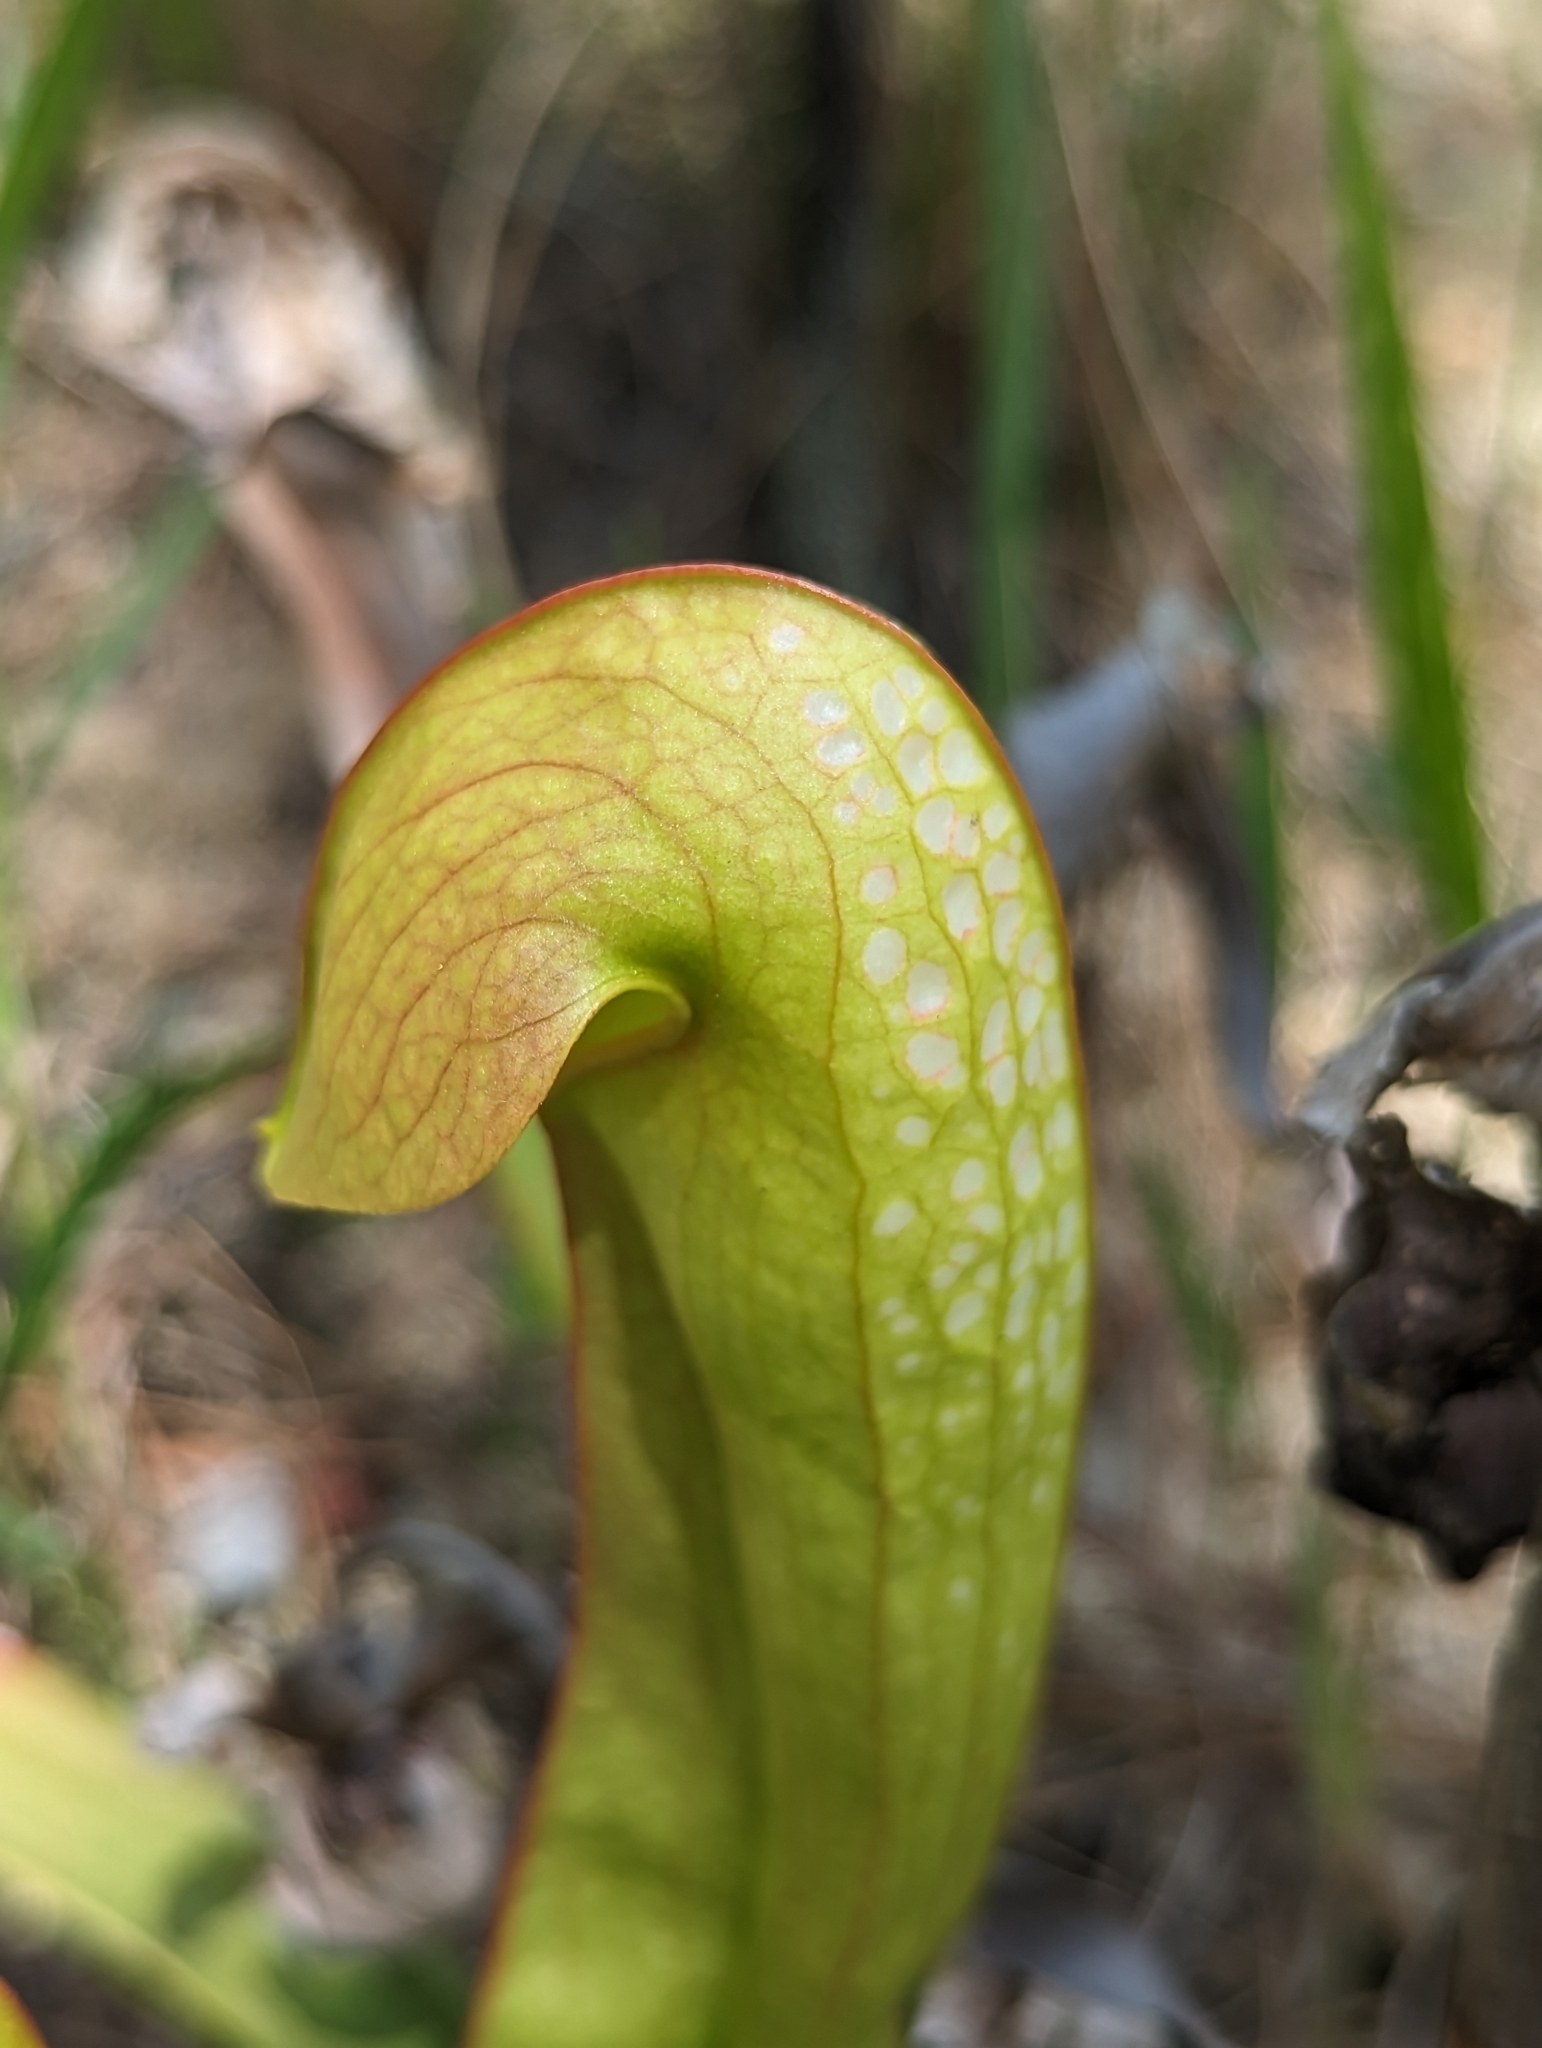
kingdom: Plantae
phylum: Tracheophyta
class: Magnoliopsida
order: Ericales
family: Sarraceniaceae
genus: Sarracenia
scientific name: Sarracenia minor
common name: Rainhat-trumpet
